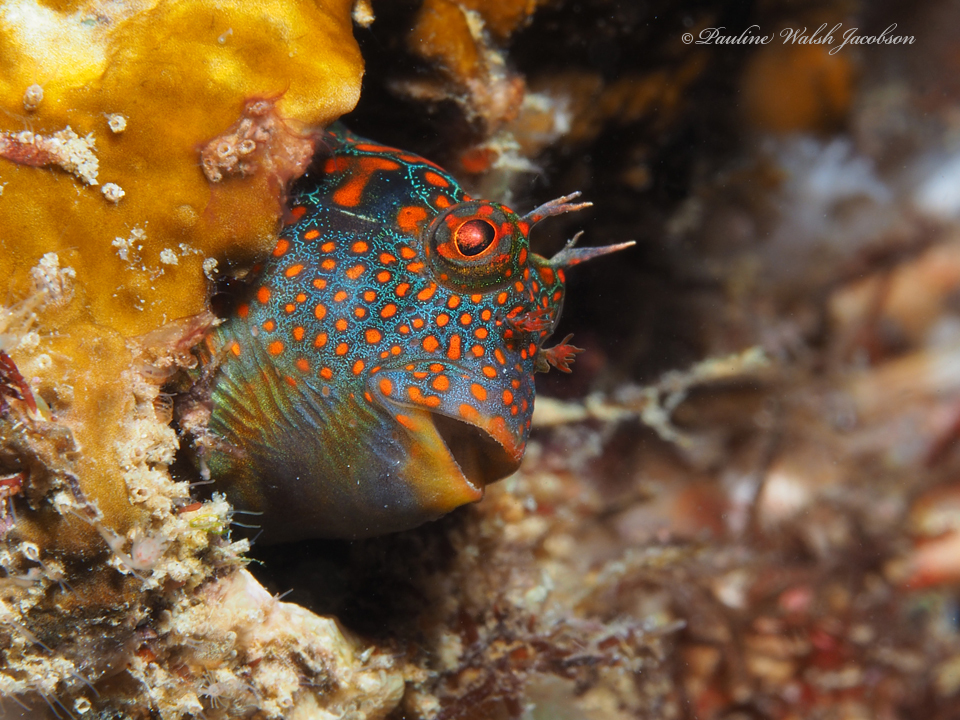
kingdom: Animalia
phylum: Chordata
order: Perciformes
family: Blenniidae
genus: Hypsoblennius
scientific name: Hypsoblennius invemar
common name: Tessellated blenny
